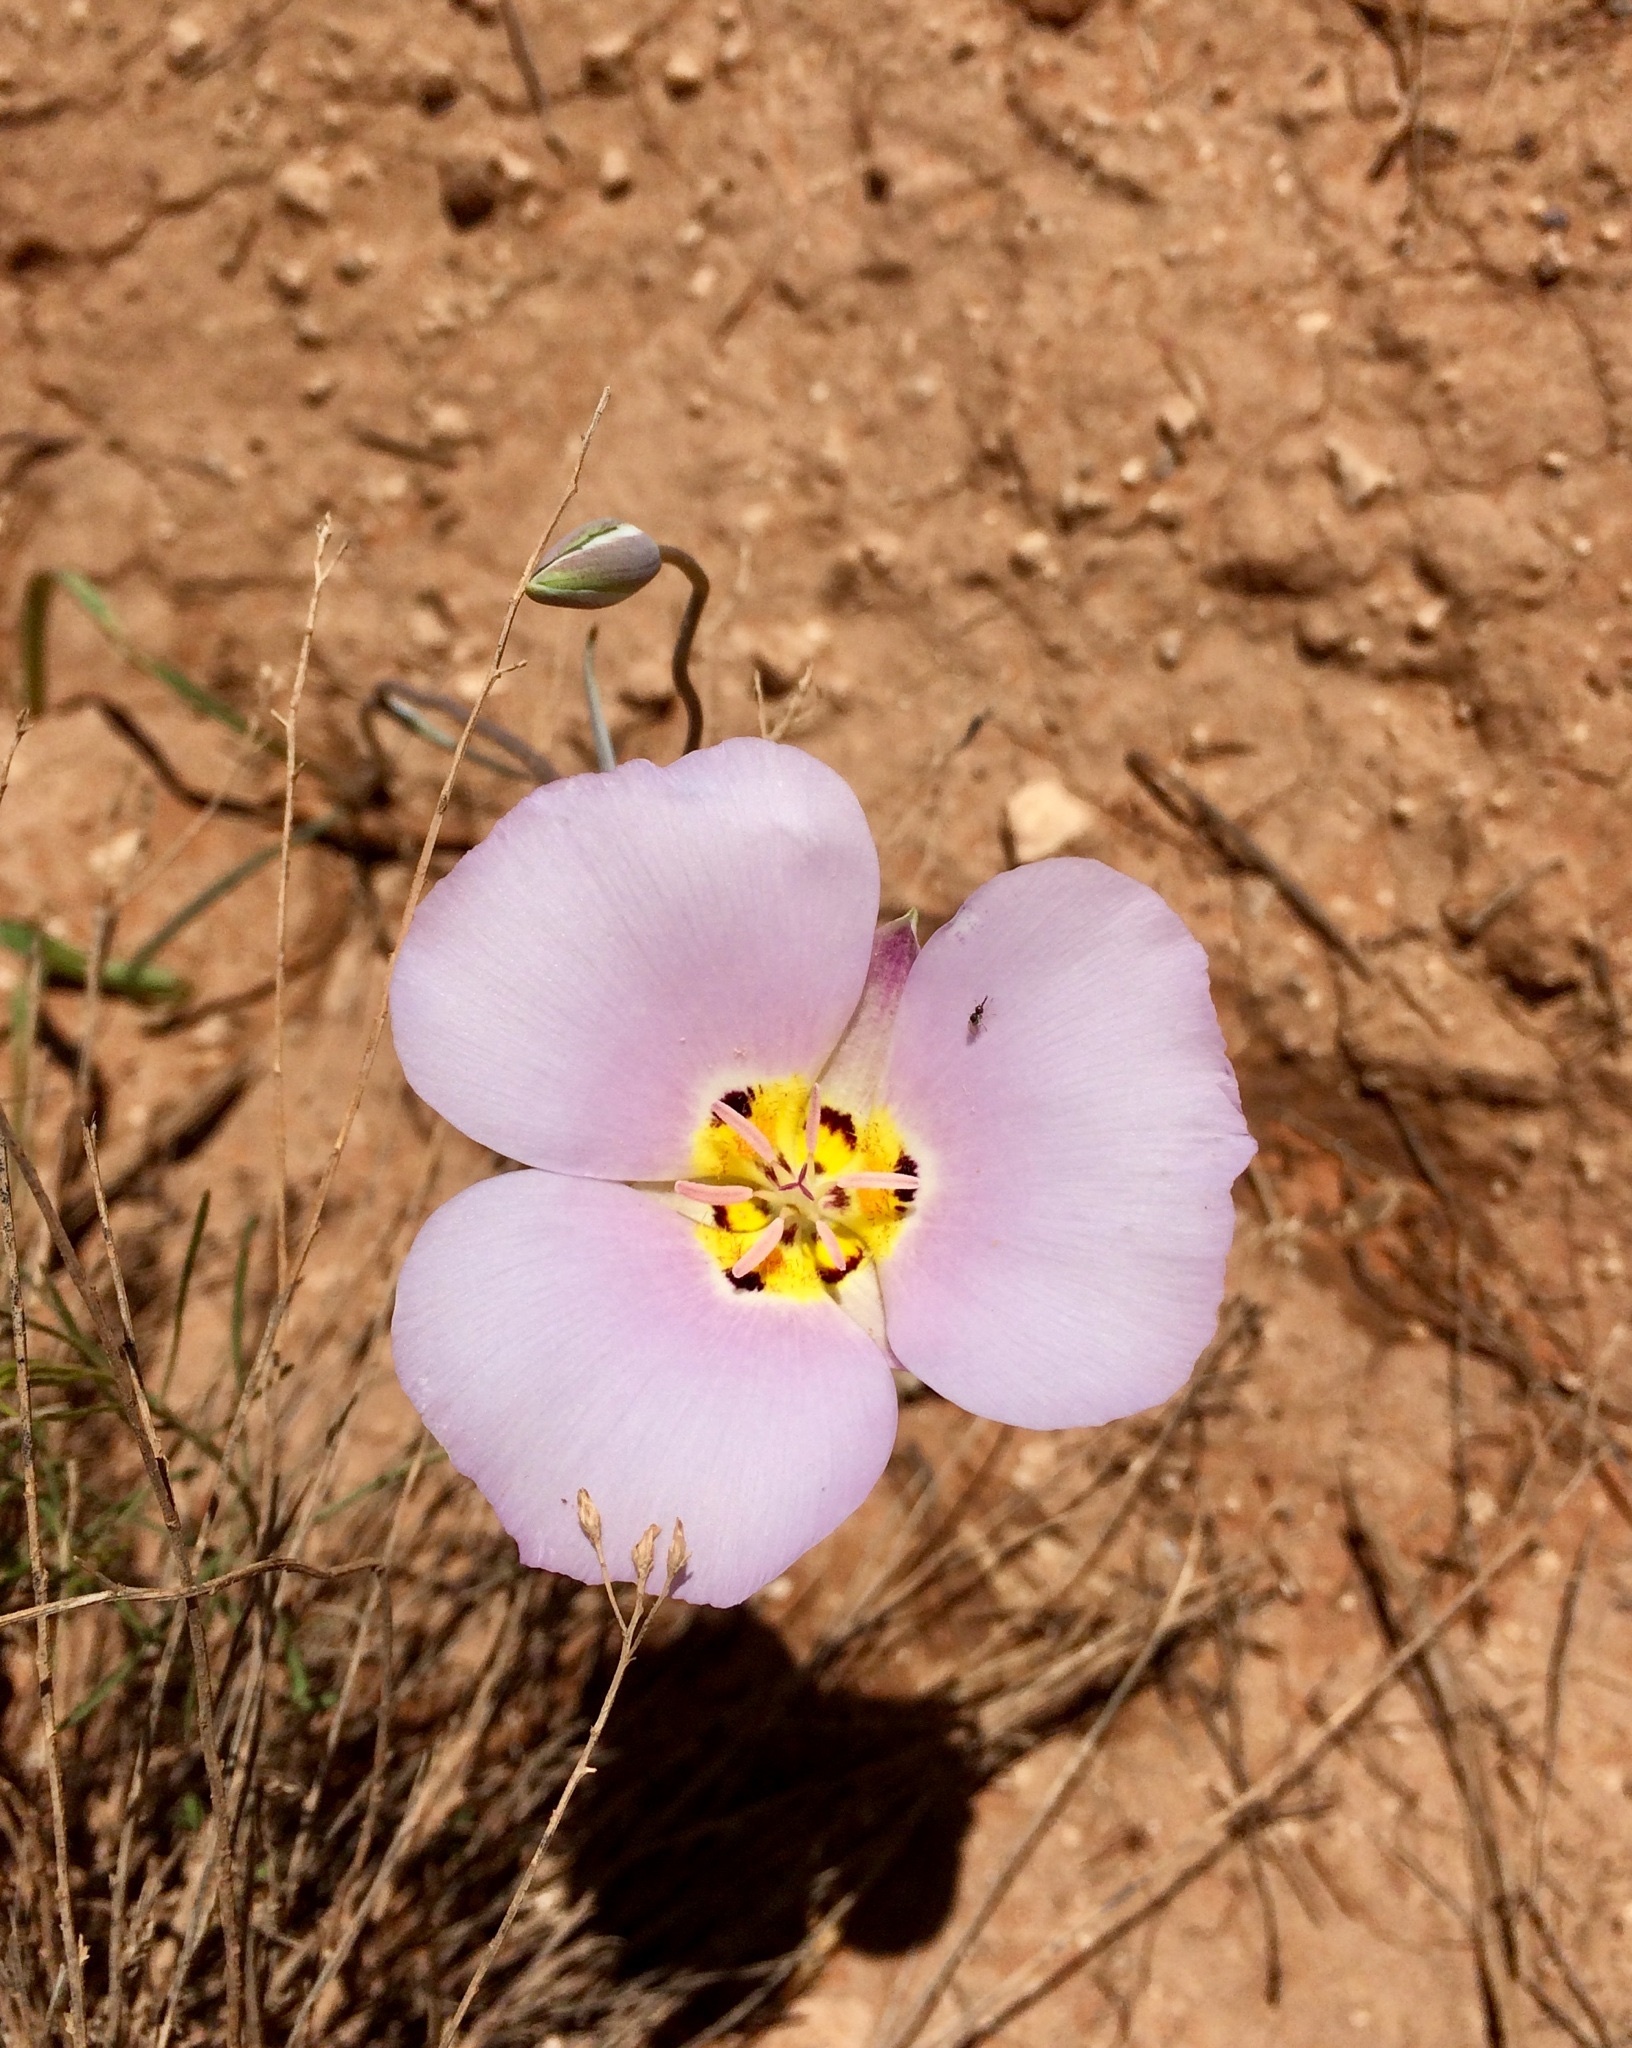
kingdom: Plantae
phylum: Tracheophyta
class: Liliopsida
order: Liliales
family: Liliaceae
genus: Calochortus
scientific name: Calochortus flexuosus
